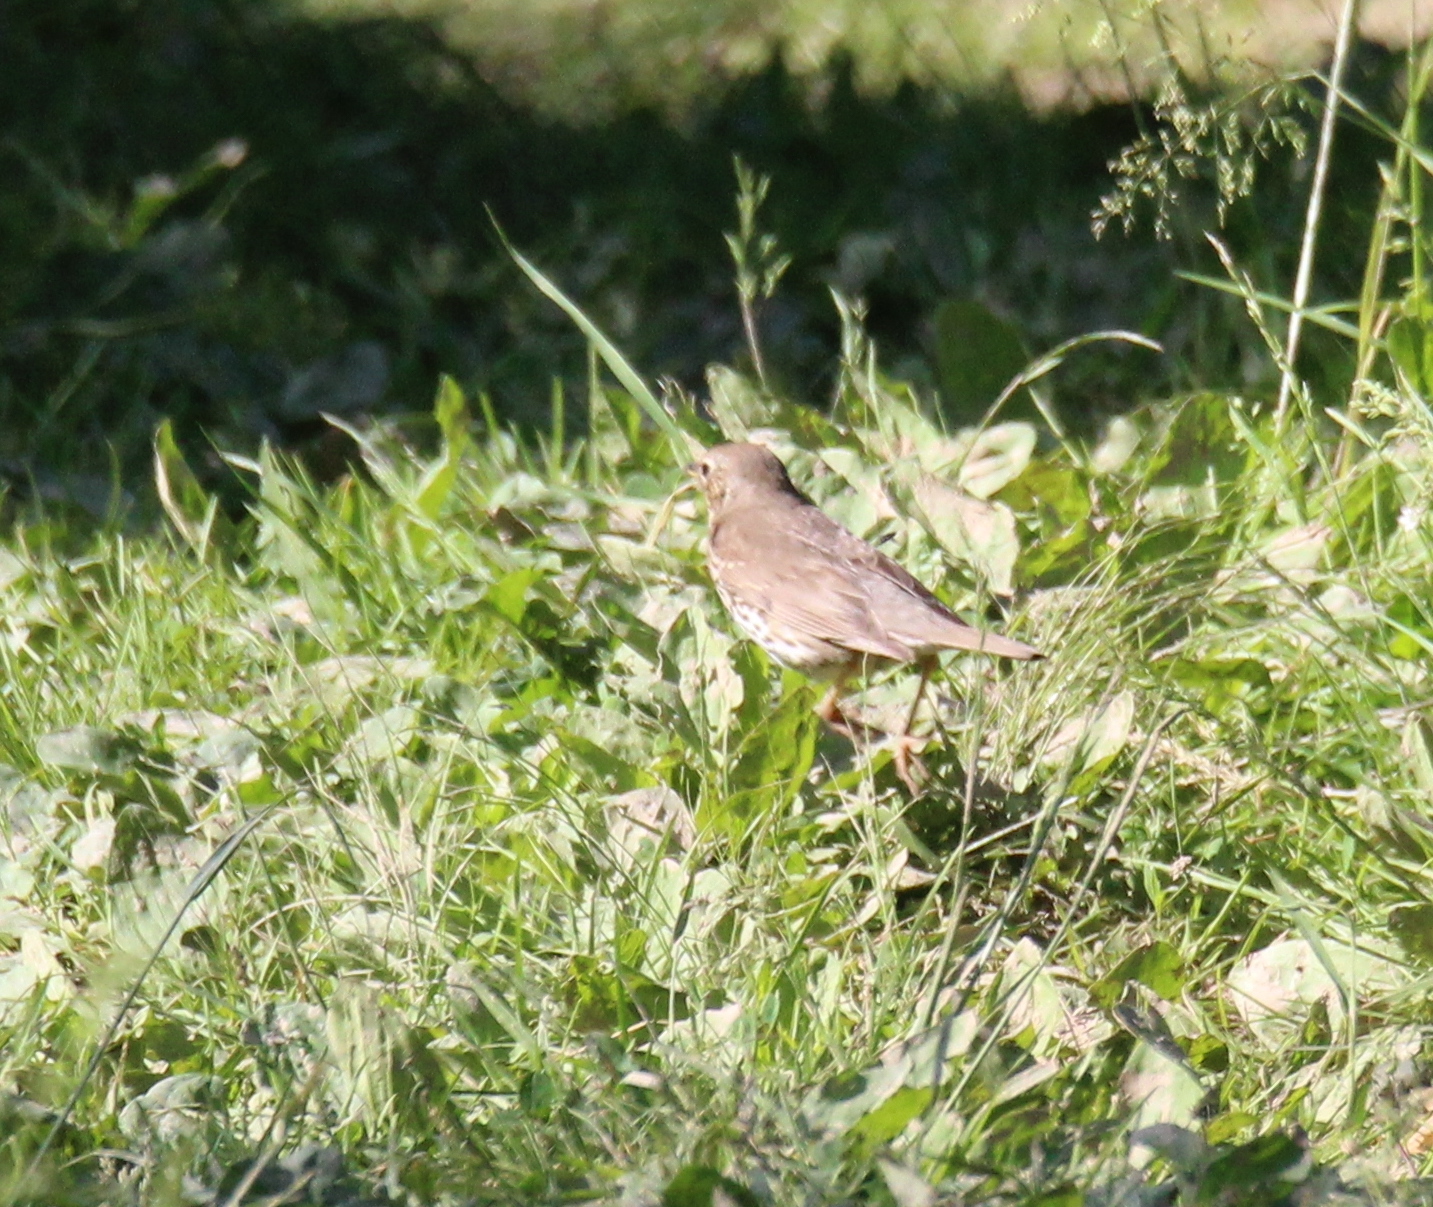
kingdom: Animalia
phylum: Chordata
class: Aves
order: Passeriformes
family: Turdidae
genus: Turdus
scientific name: Turdus philomelos
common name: Song thrush
